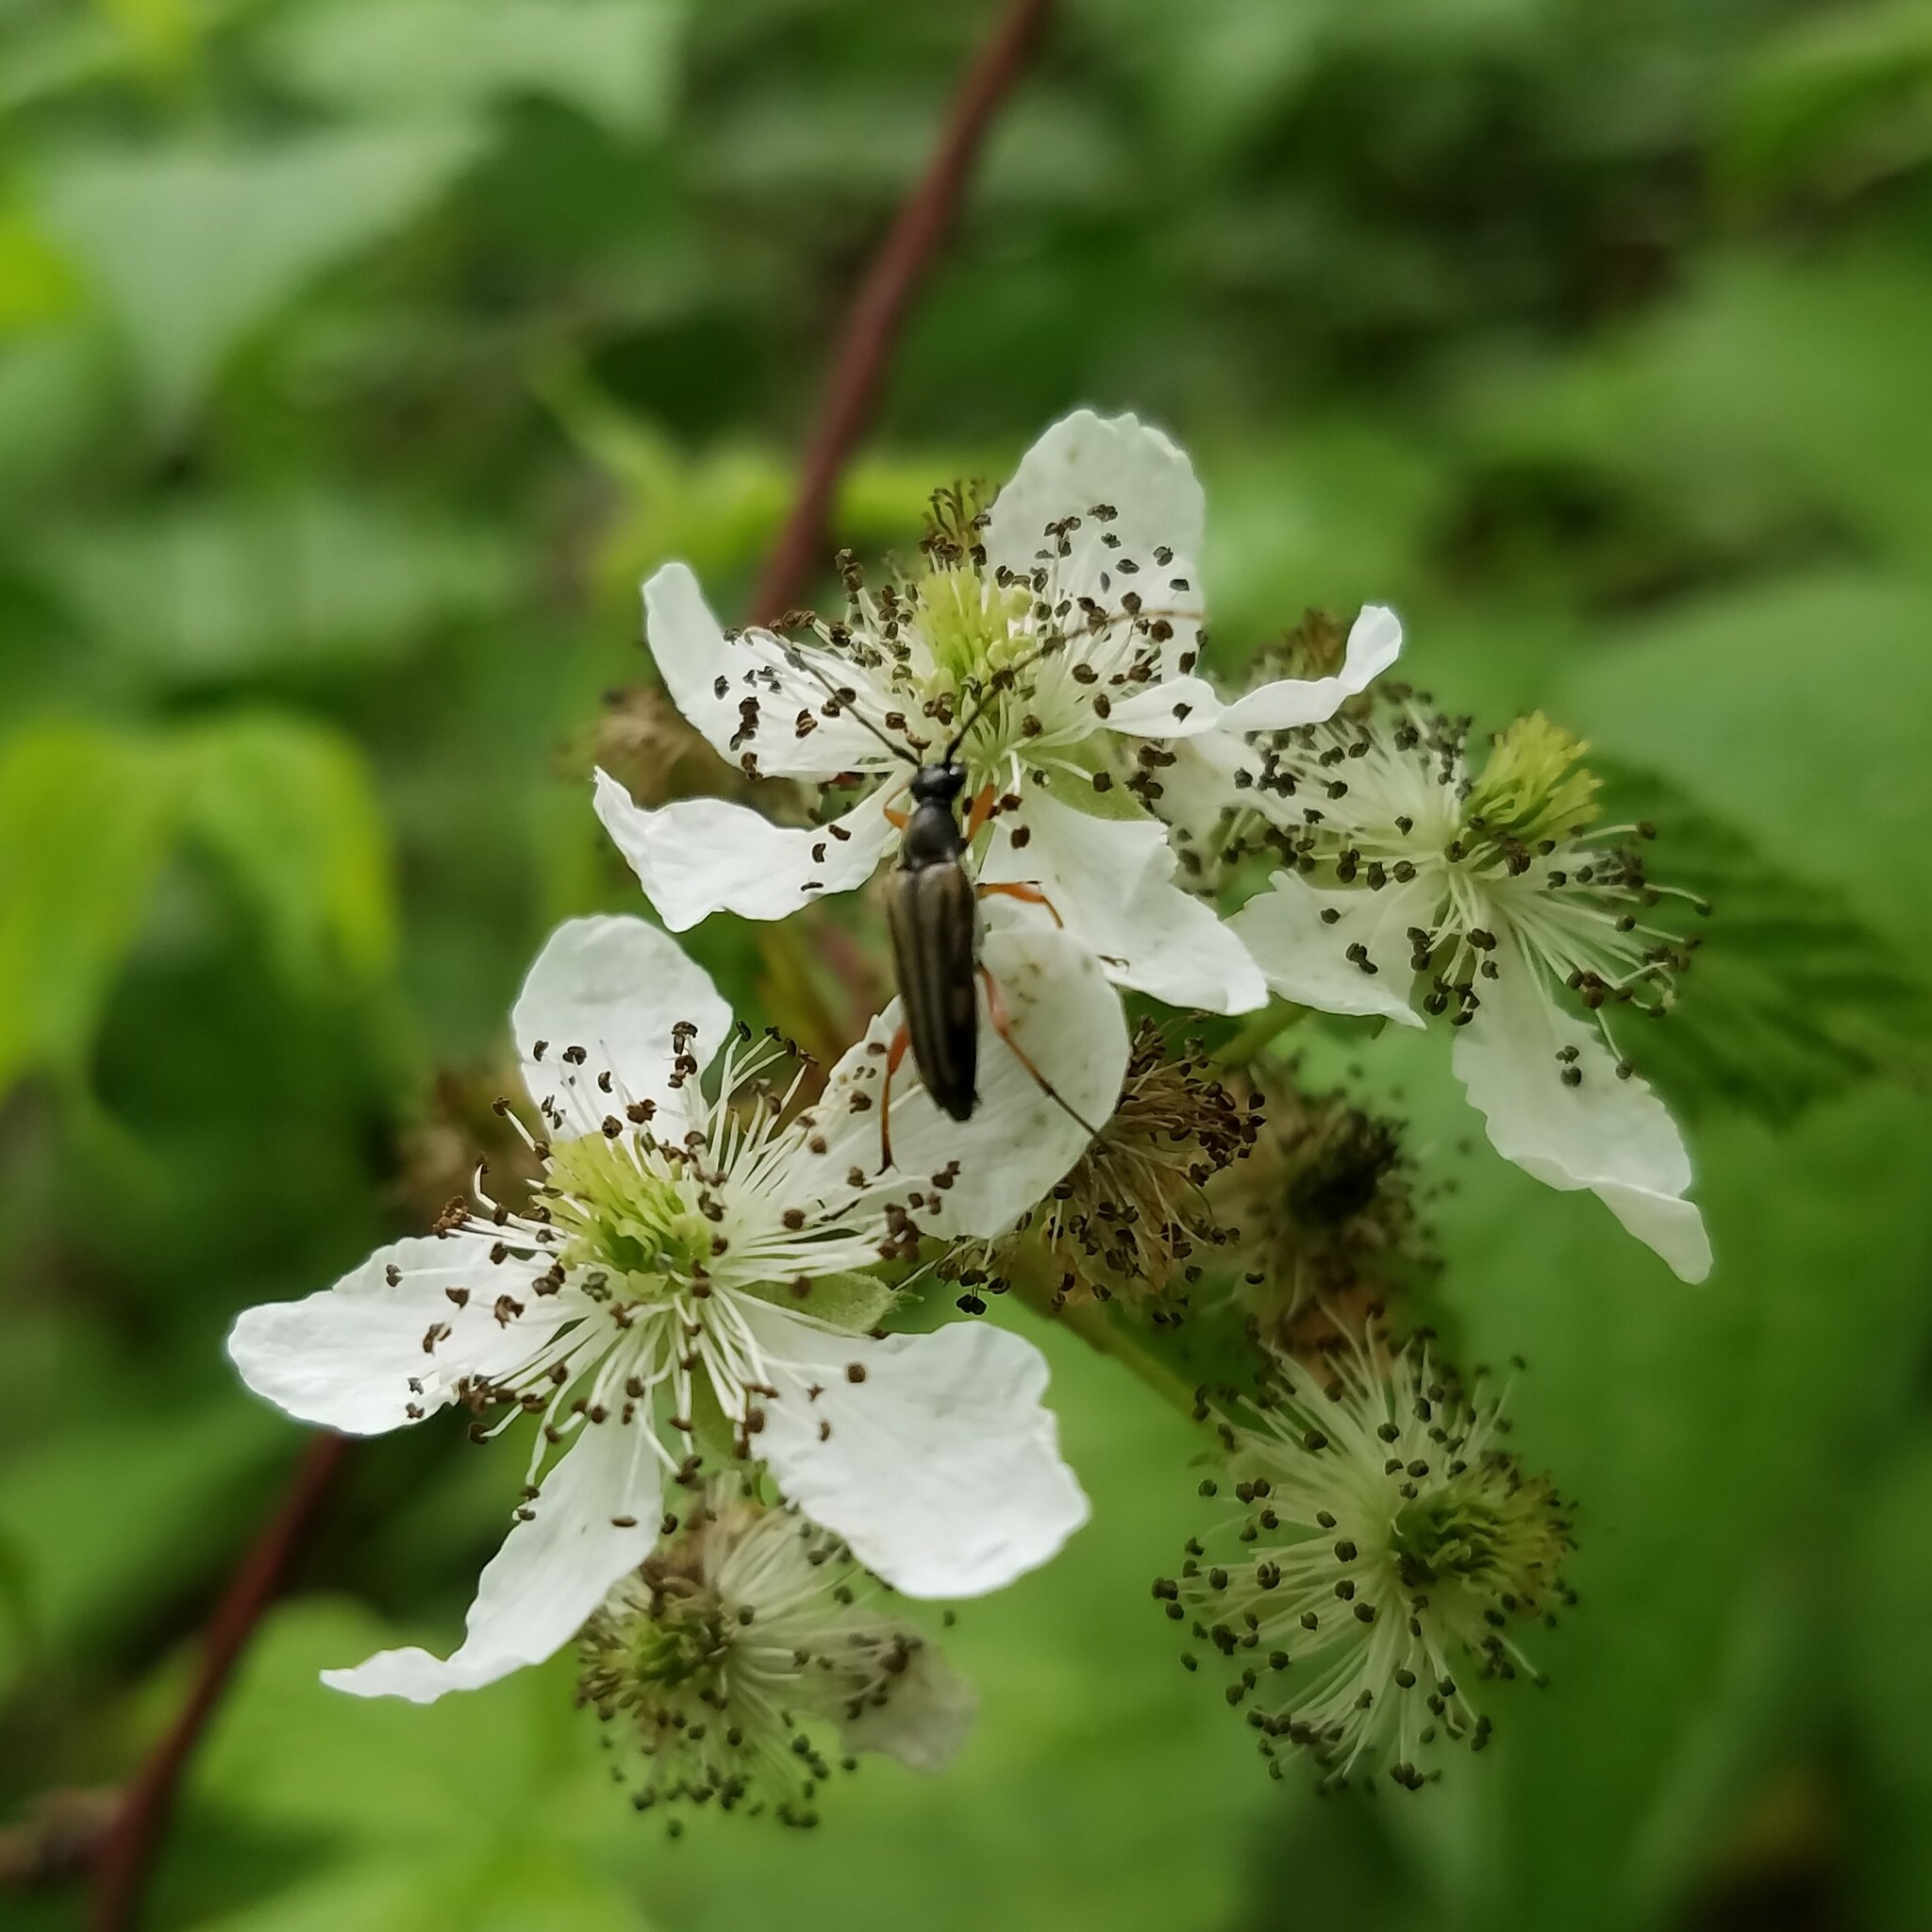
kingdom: Animalia
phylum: Arthropoda
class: Insecta
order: Coleoptera
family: Cerambycidae
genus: Analeptura
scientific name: Analeptura lineola
